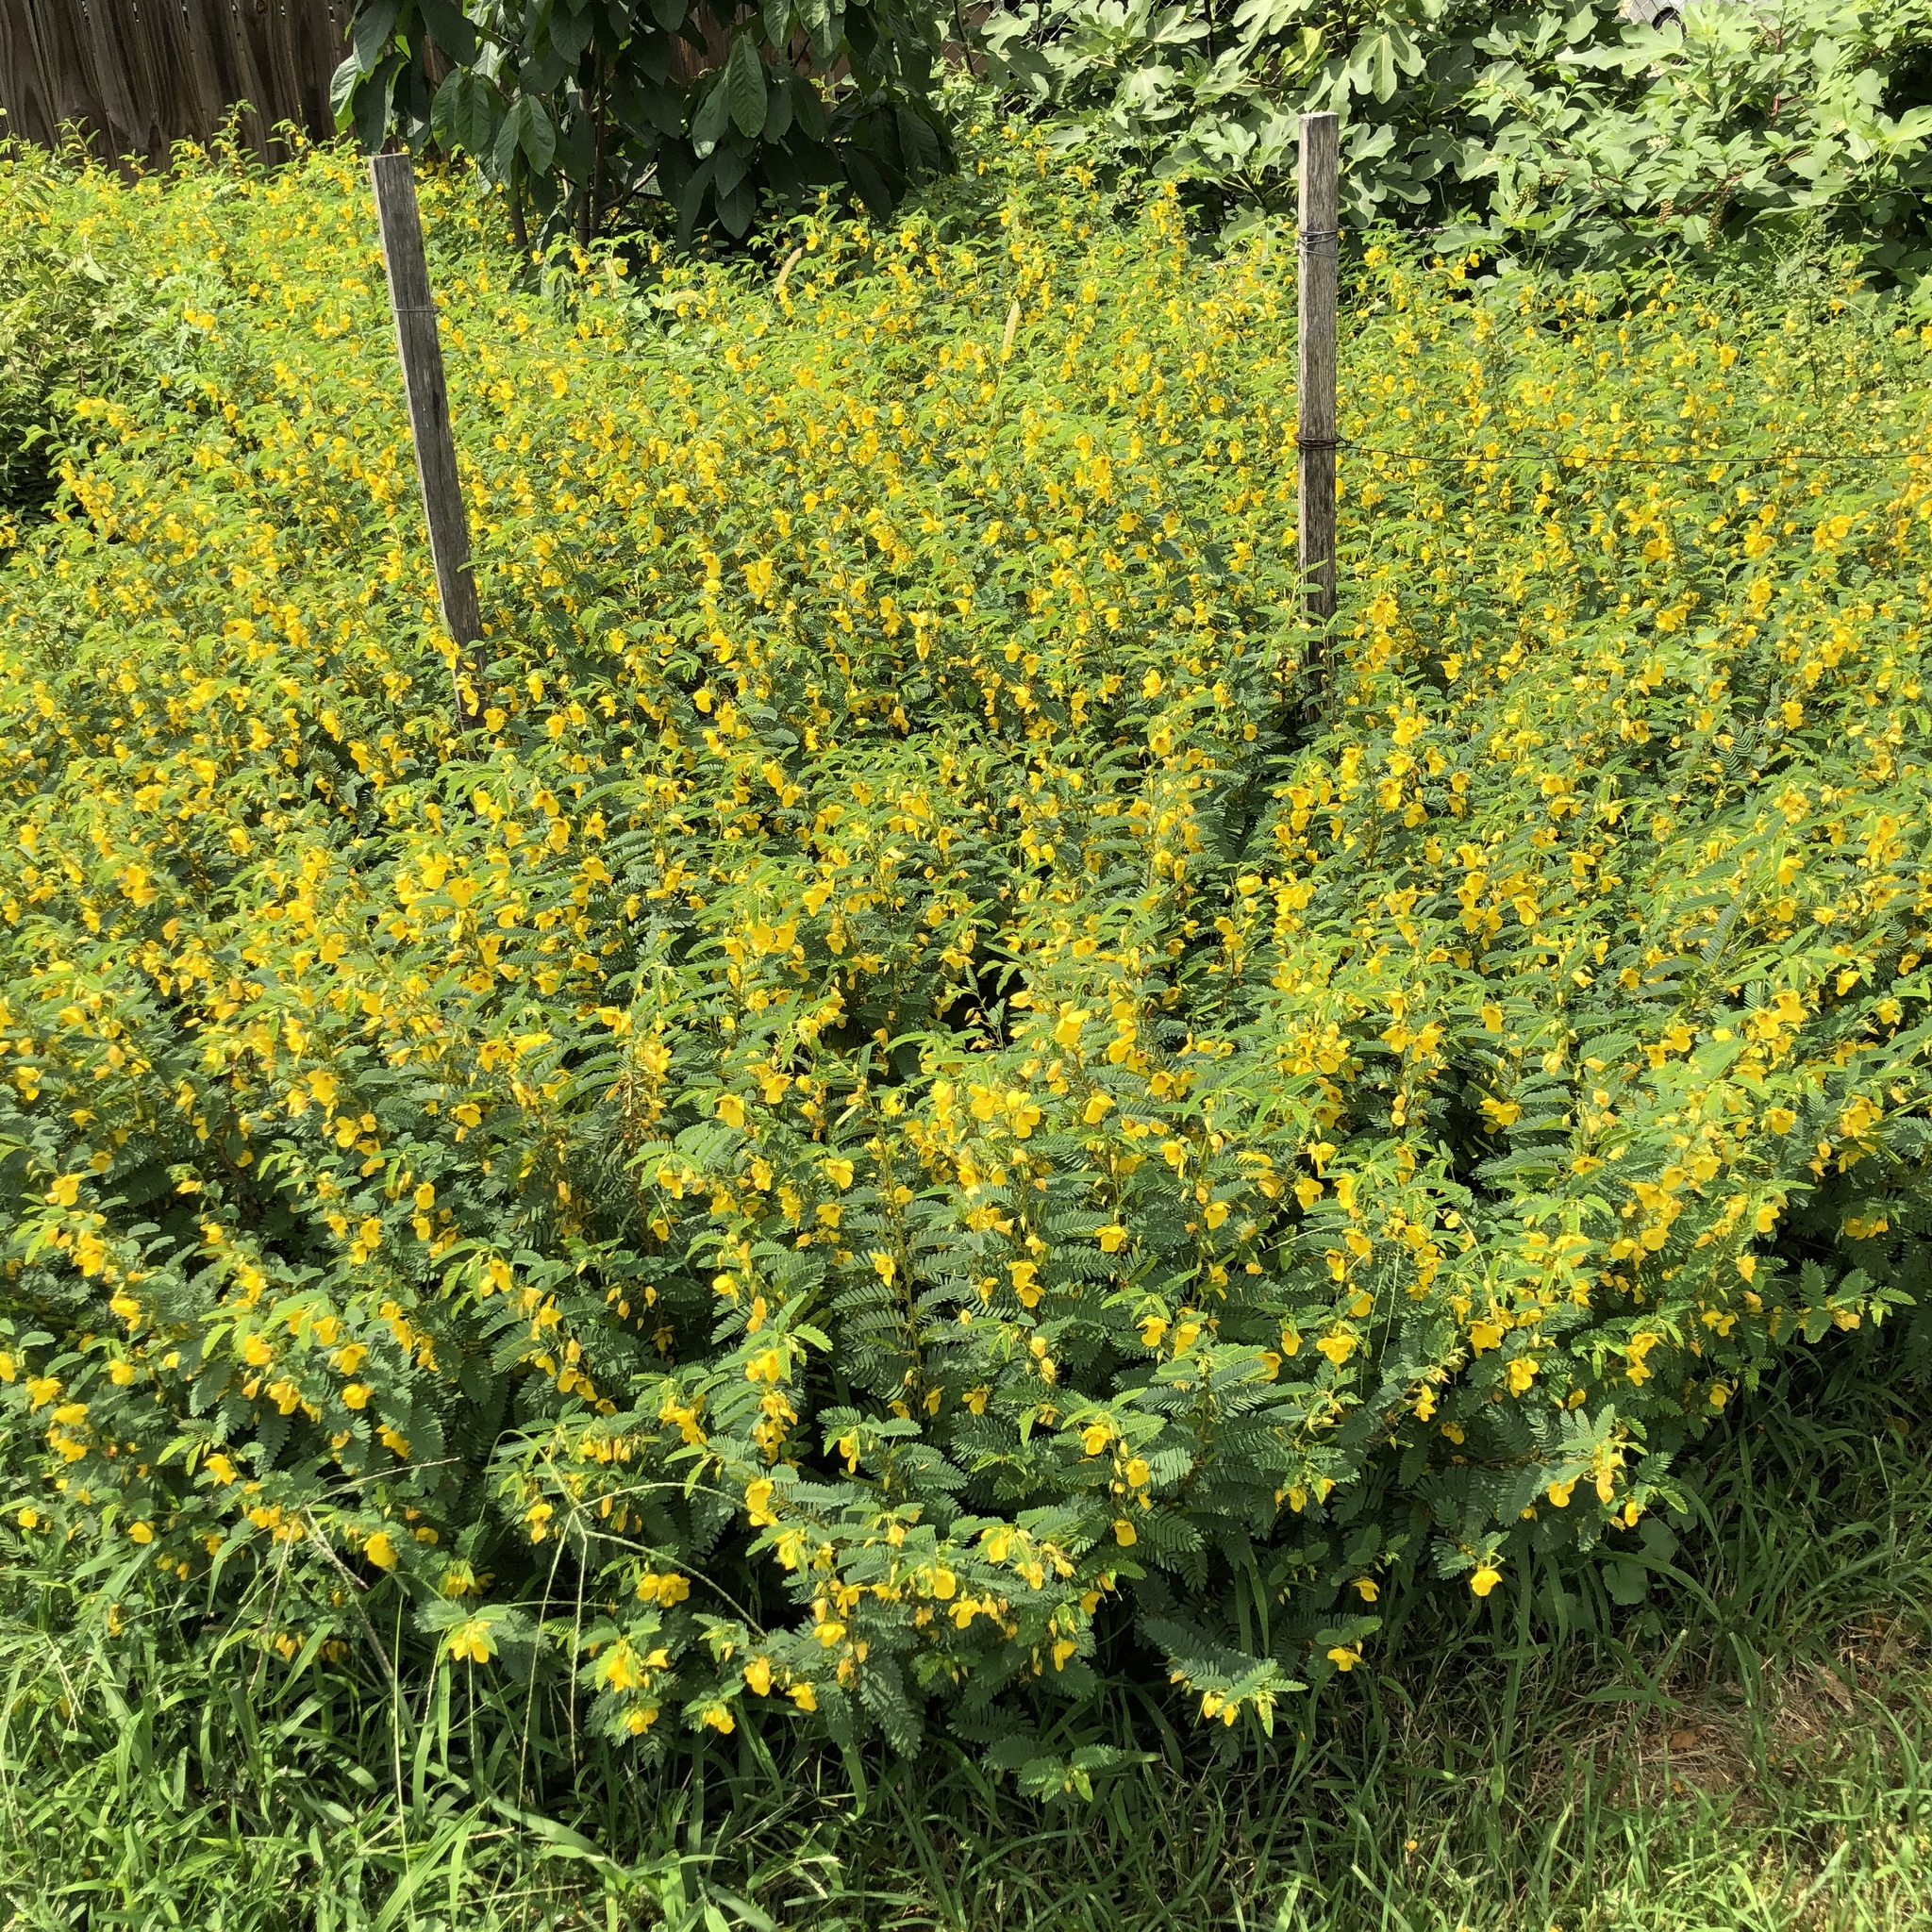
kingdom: Plantae
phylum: Tracheophyta
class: Magnoliopsida
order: Fabales
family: Fabaceae
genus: Chamaecrista
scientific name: Chamaecrista fasciculata
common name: Golden cassia
